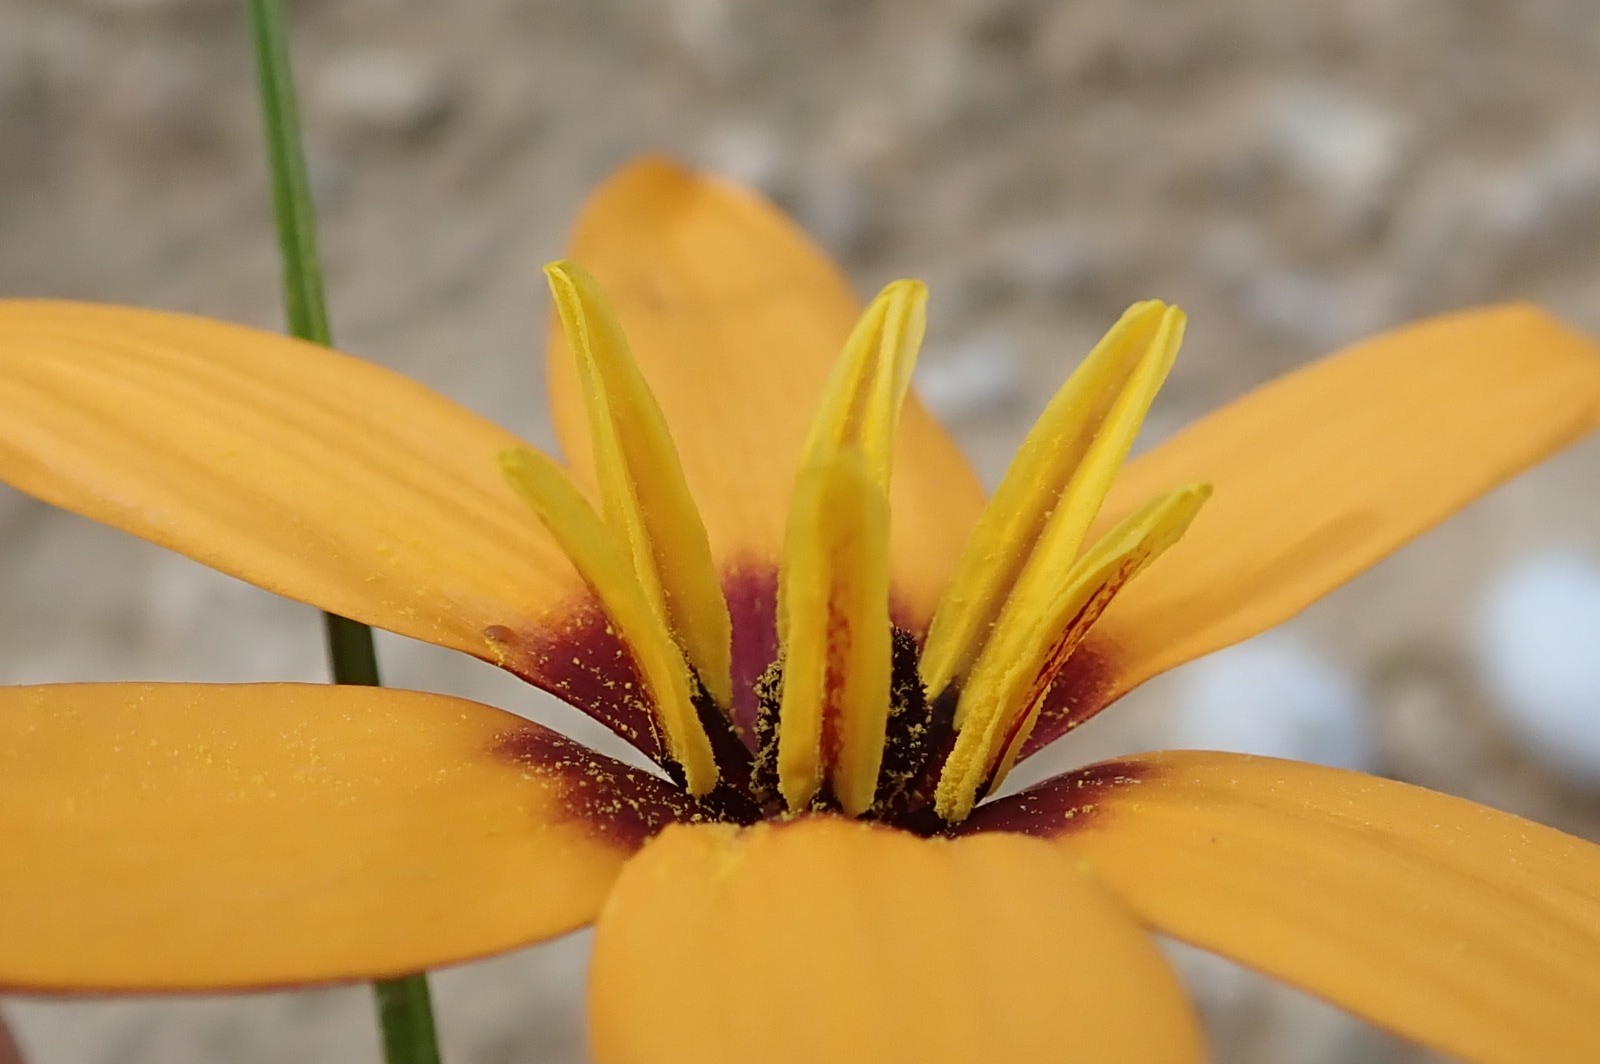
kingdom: Plantae
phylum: Tracheophyta
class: Liliopsida
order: Asparagales
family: Hypoxidaceae
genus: Pauridia
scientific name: Pauridia linearis
